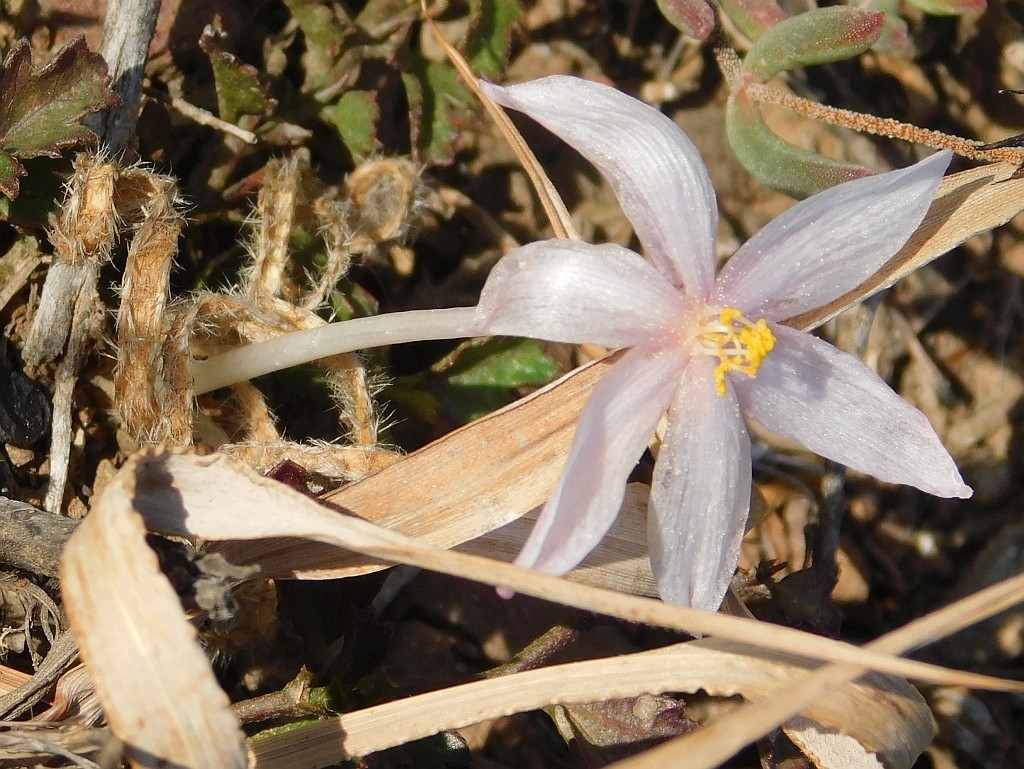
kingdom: Plantae
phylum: Tracheophyta
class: Liliopsida
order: Asparagales
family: Amaryllidaceae
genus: Gethyllis
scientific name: Gethyllis villosa
